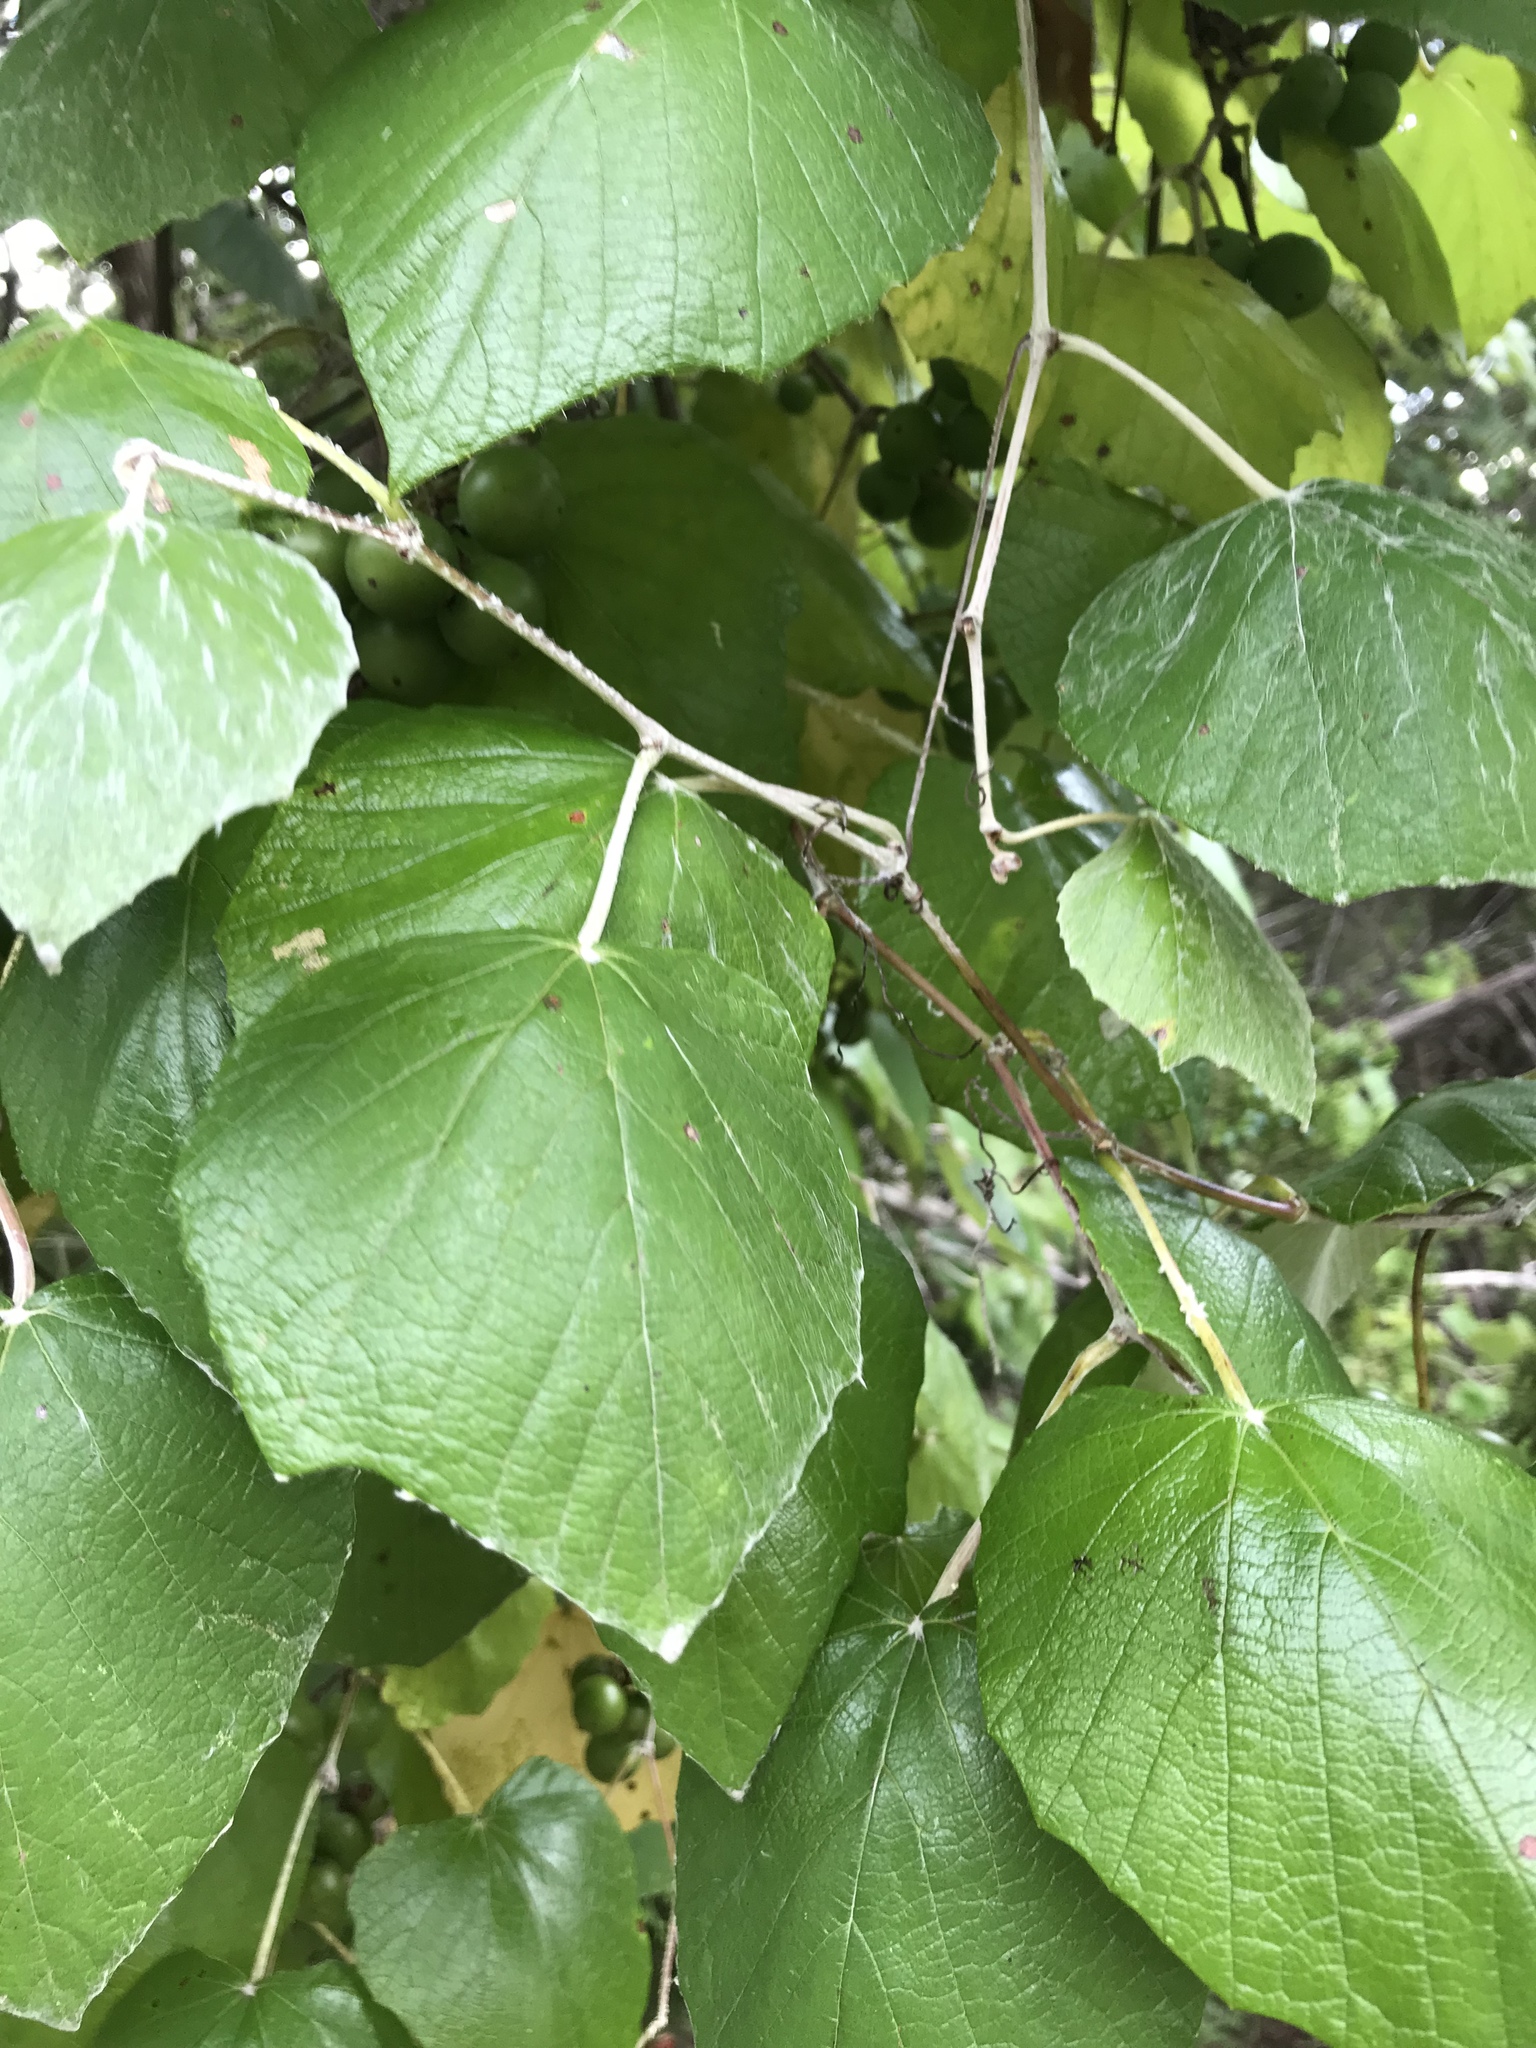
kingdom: Plantae
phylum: Tracheophyta
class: Magnoliopsida
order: Vitales
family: Vitaceae
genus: Vitis
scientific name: Vitis mustangensis
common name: Mustang grape
